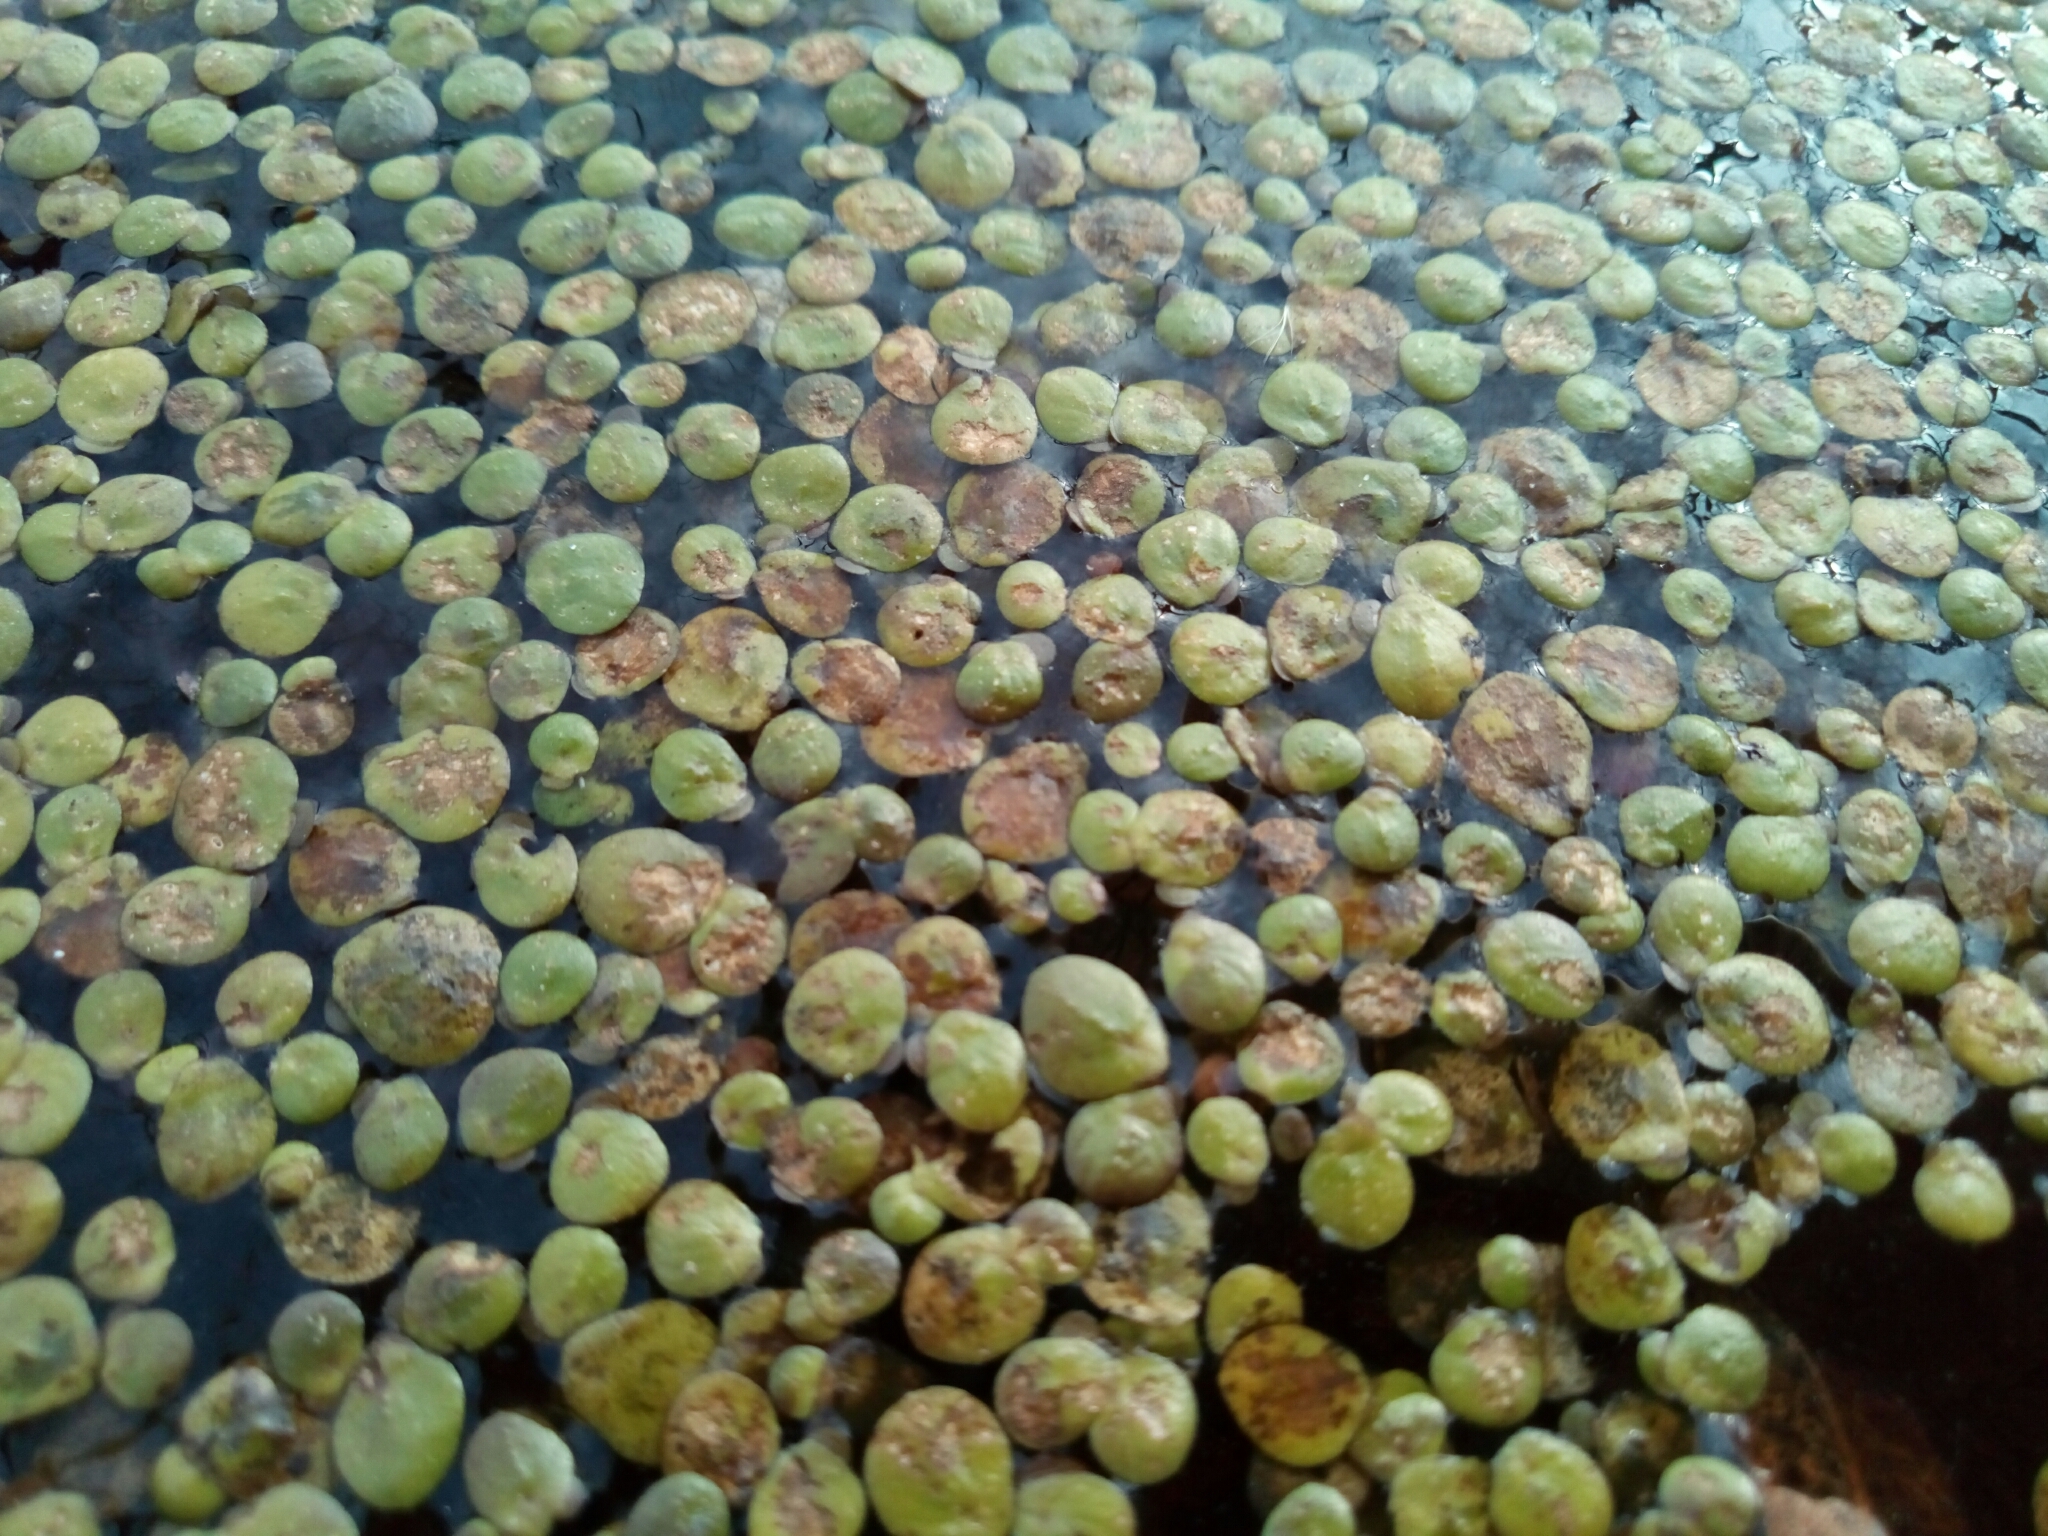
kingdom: Plantae
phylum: Tracheophyta
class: Liliopsida
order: Alismatales
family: Araceae
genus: Spirodela
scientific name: Spirodela polyrhiza
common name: Great duckweed
